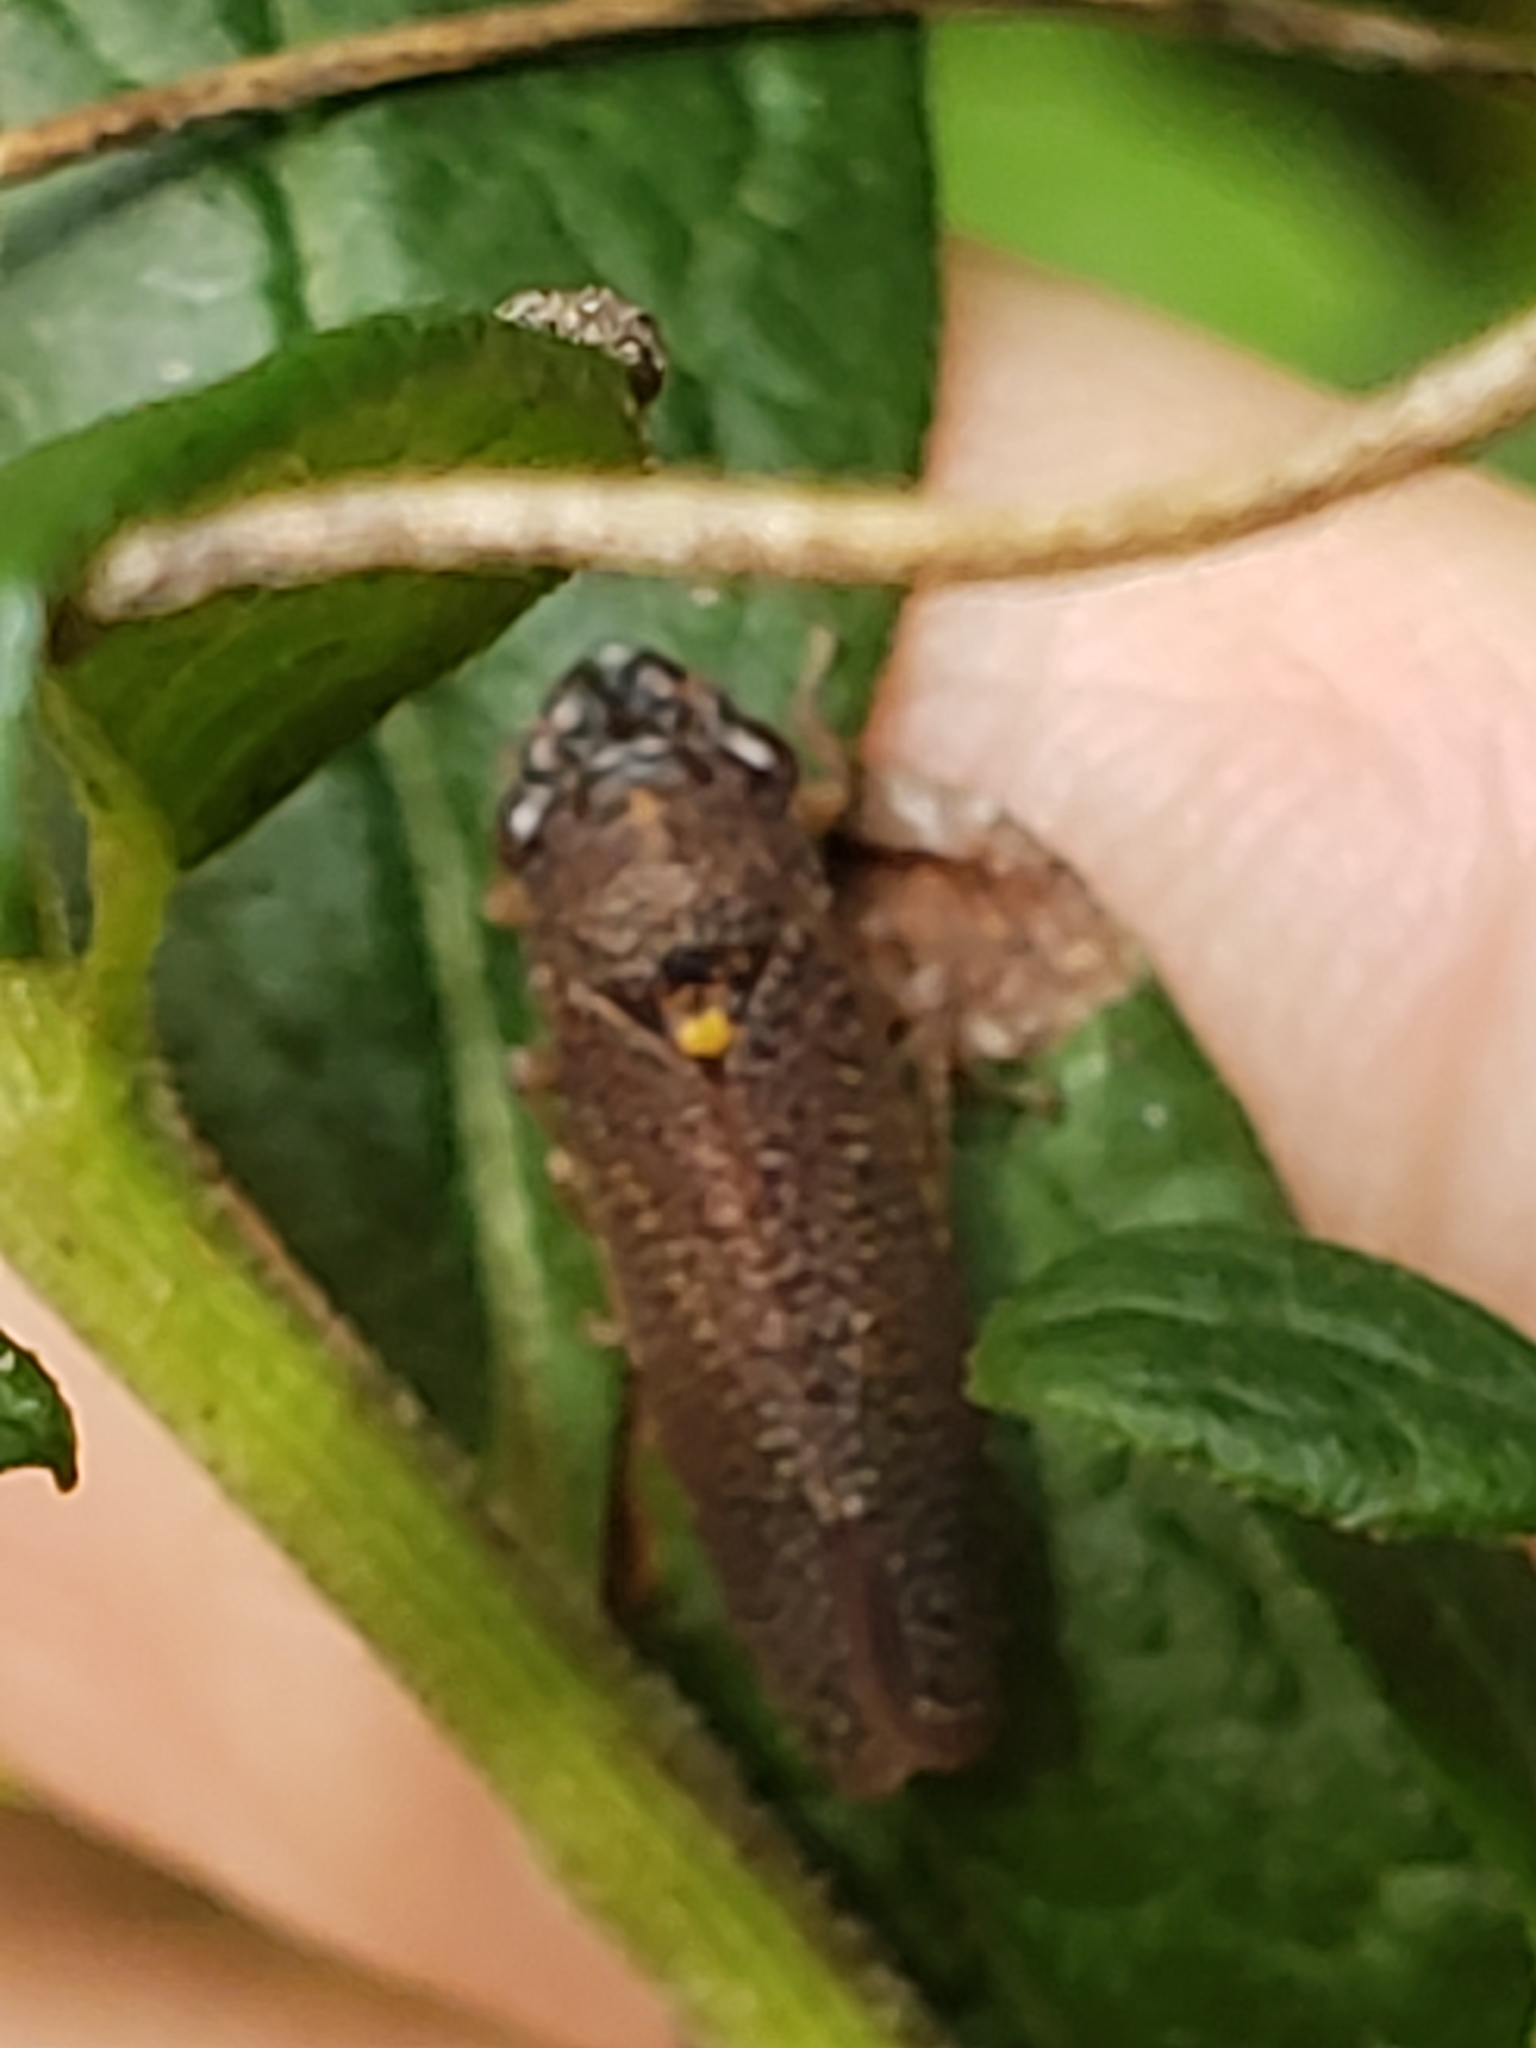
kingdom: Animalia
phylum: Arthropoda
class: Insecta
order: Hemiptera
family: Cicadellidae
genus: Paraulacizes
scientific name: Paraulacizes irrorata
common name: Speckled sharpshooter
